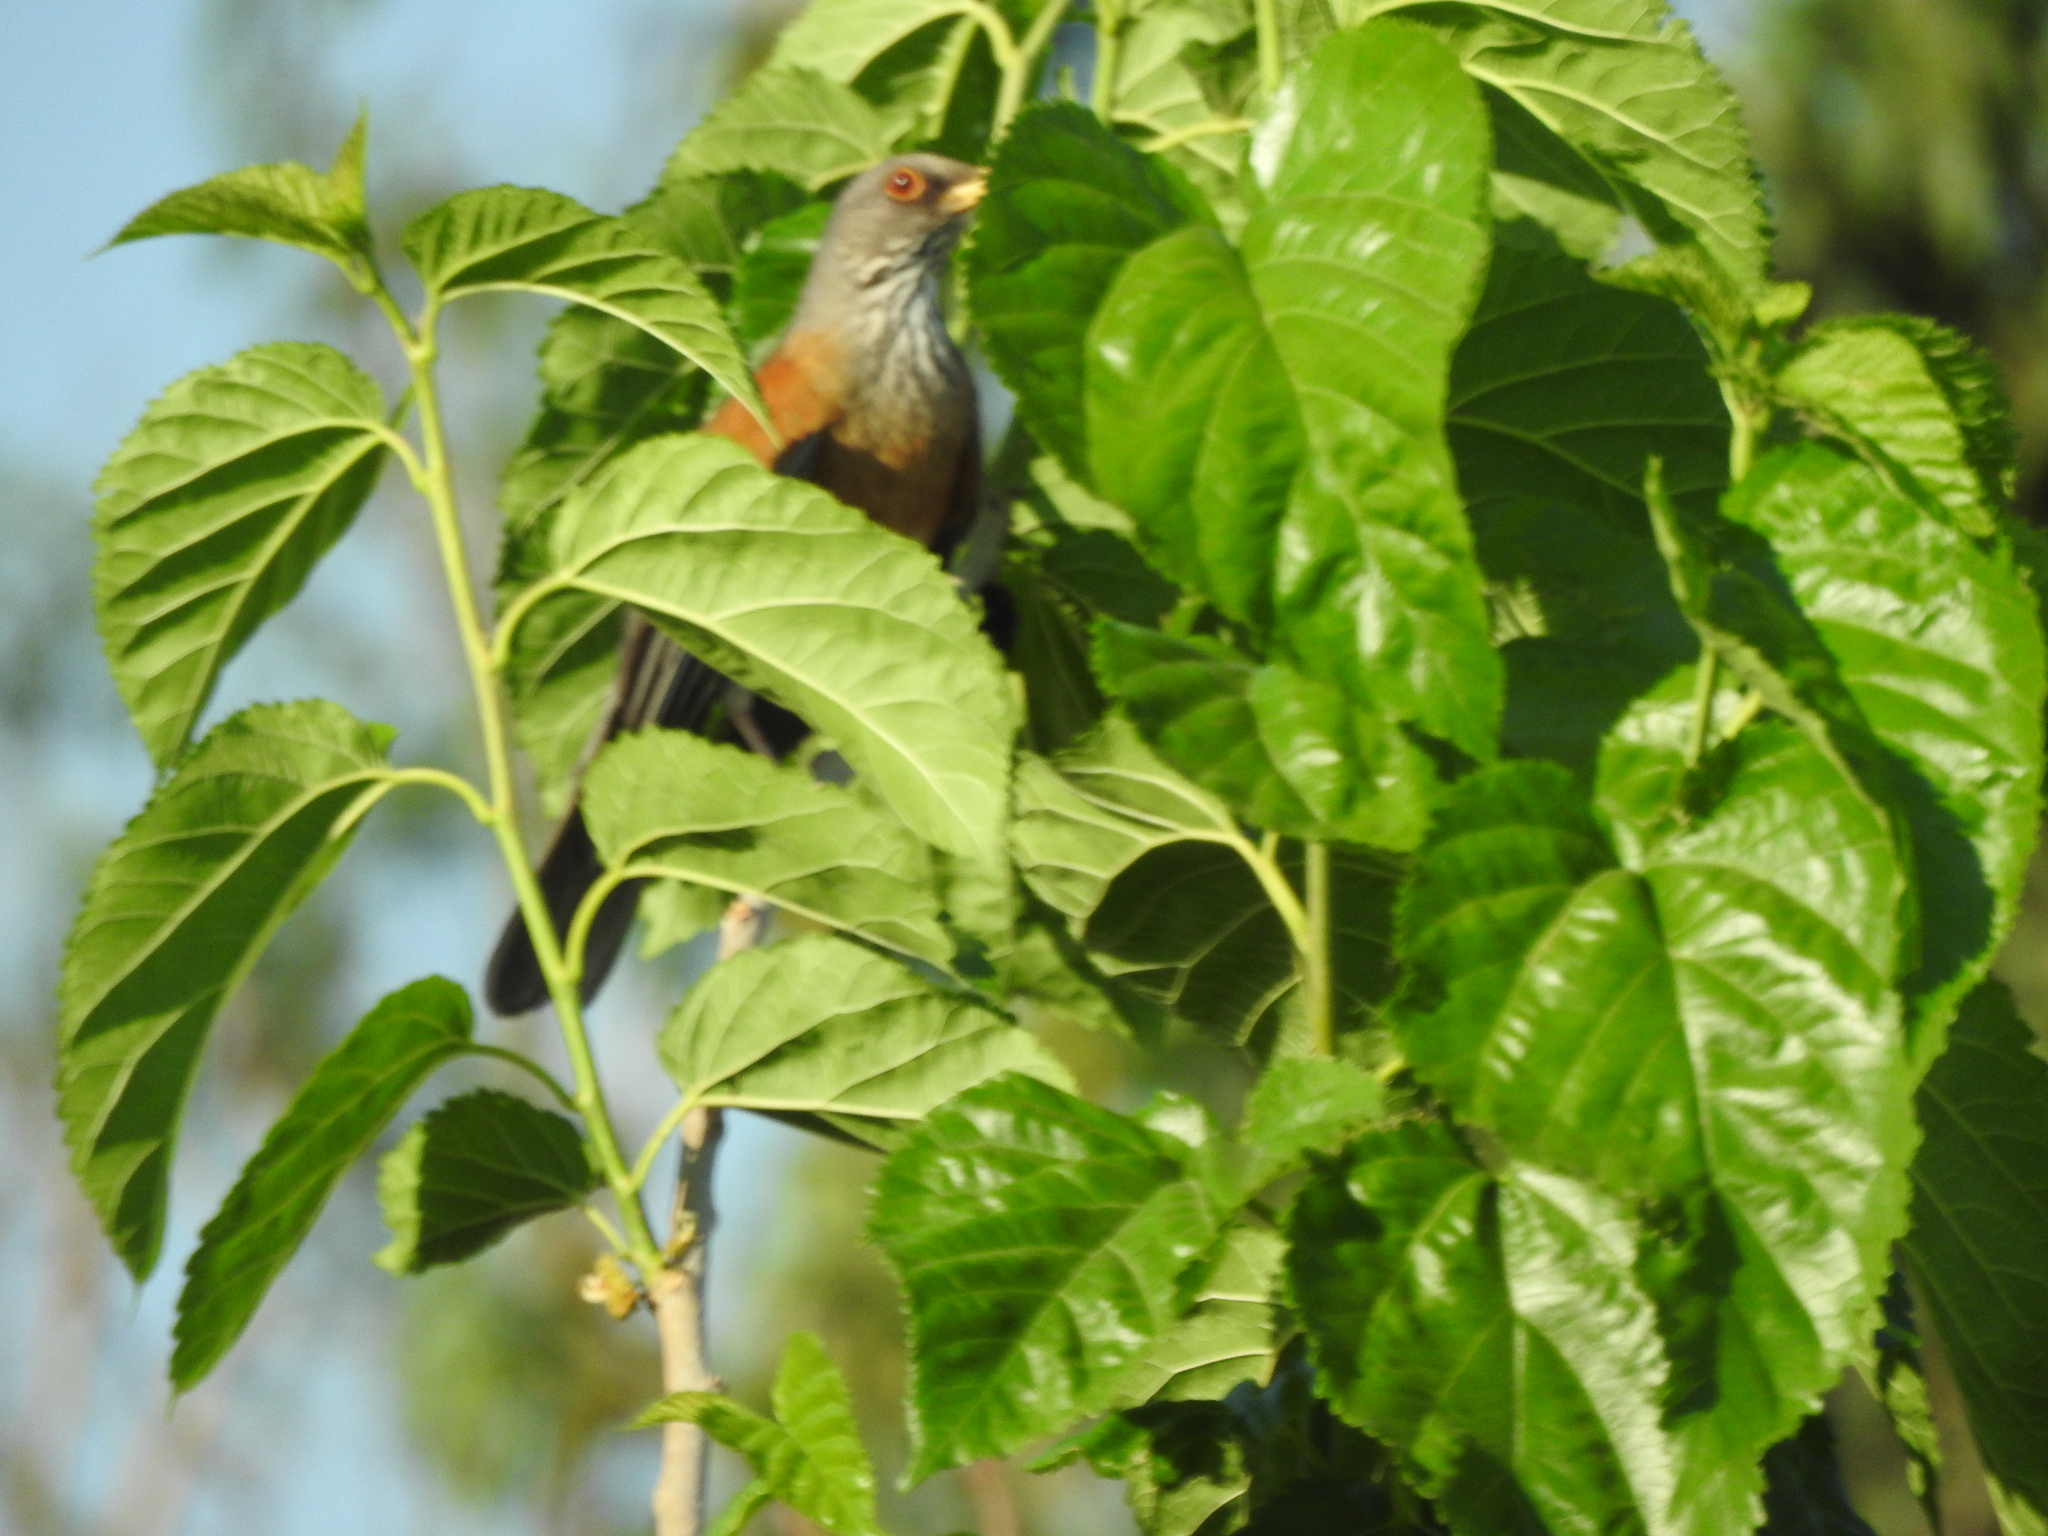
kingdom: Animalia
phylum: Chordata
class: Aves
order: Passeriformes
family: Turdidae
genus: Turdus
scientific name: Turdus rufopalliatus
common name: Rufous-backed robin
